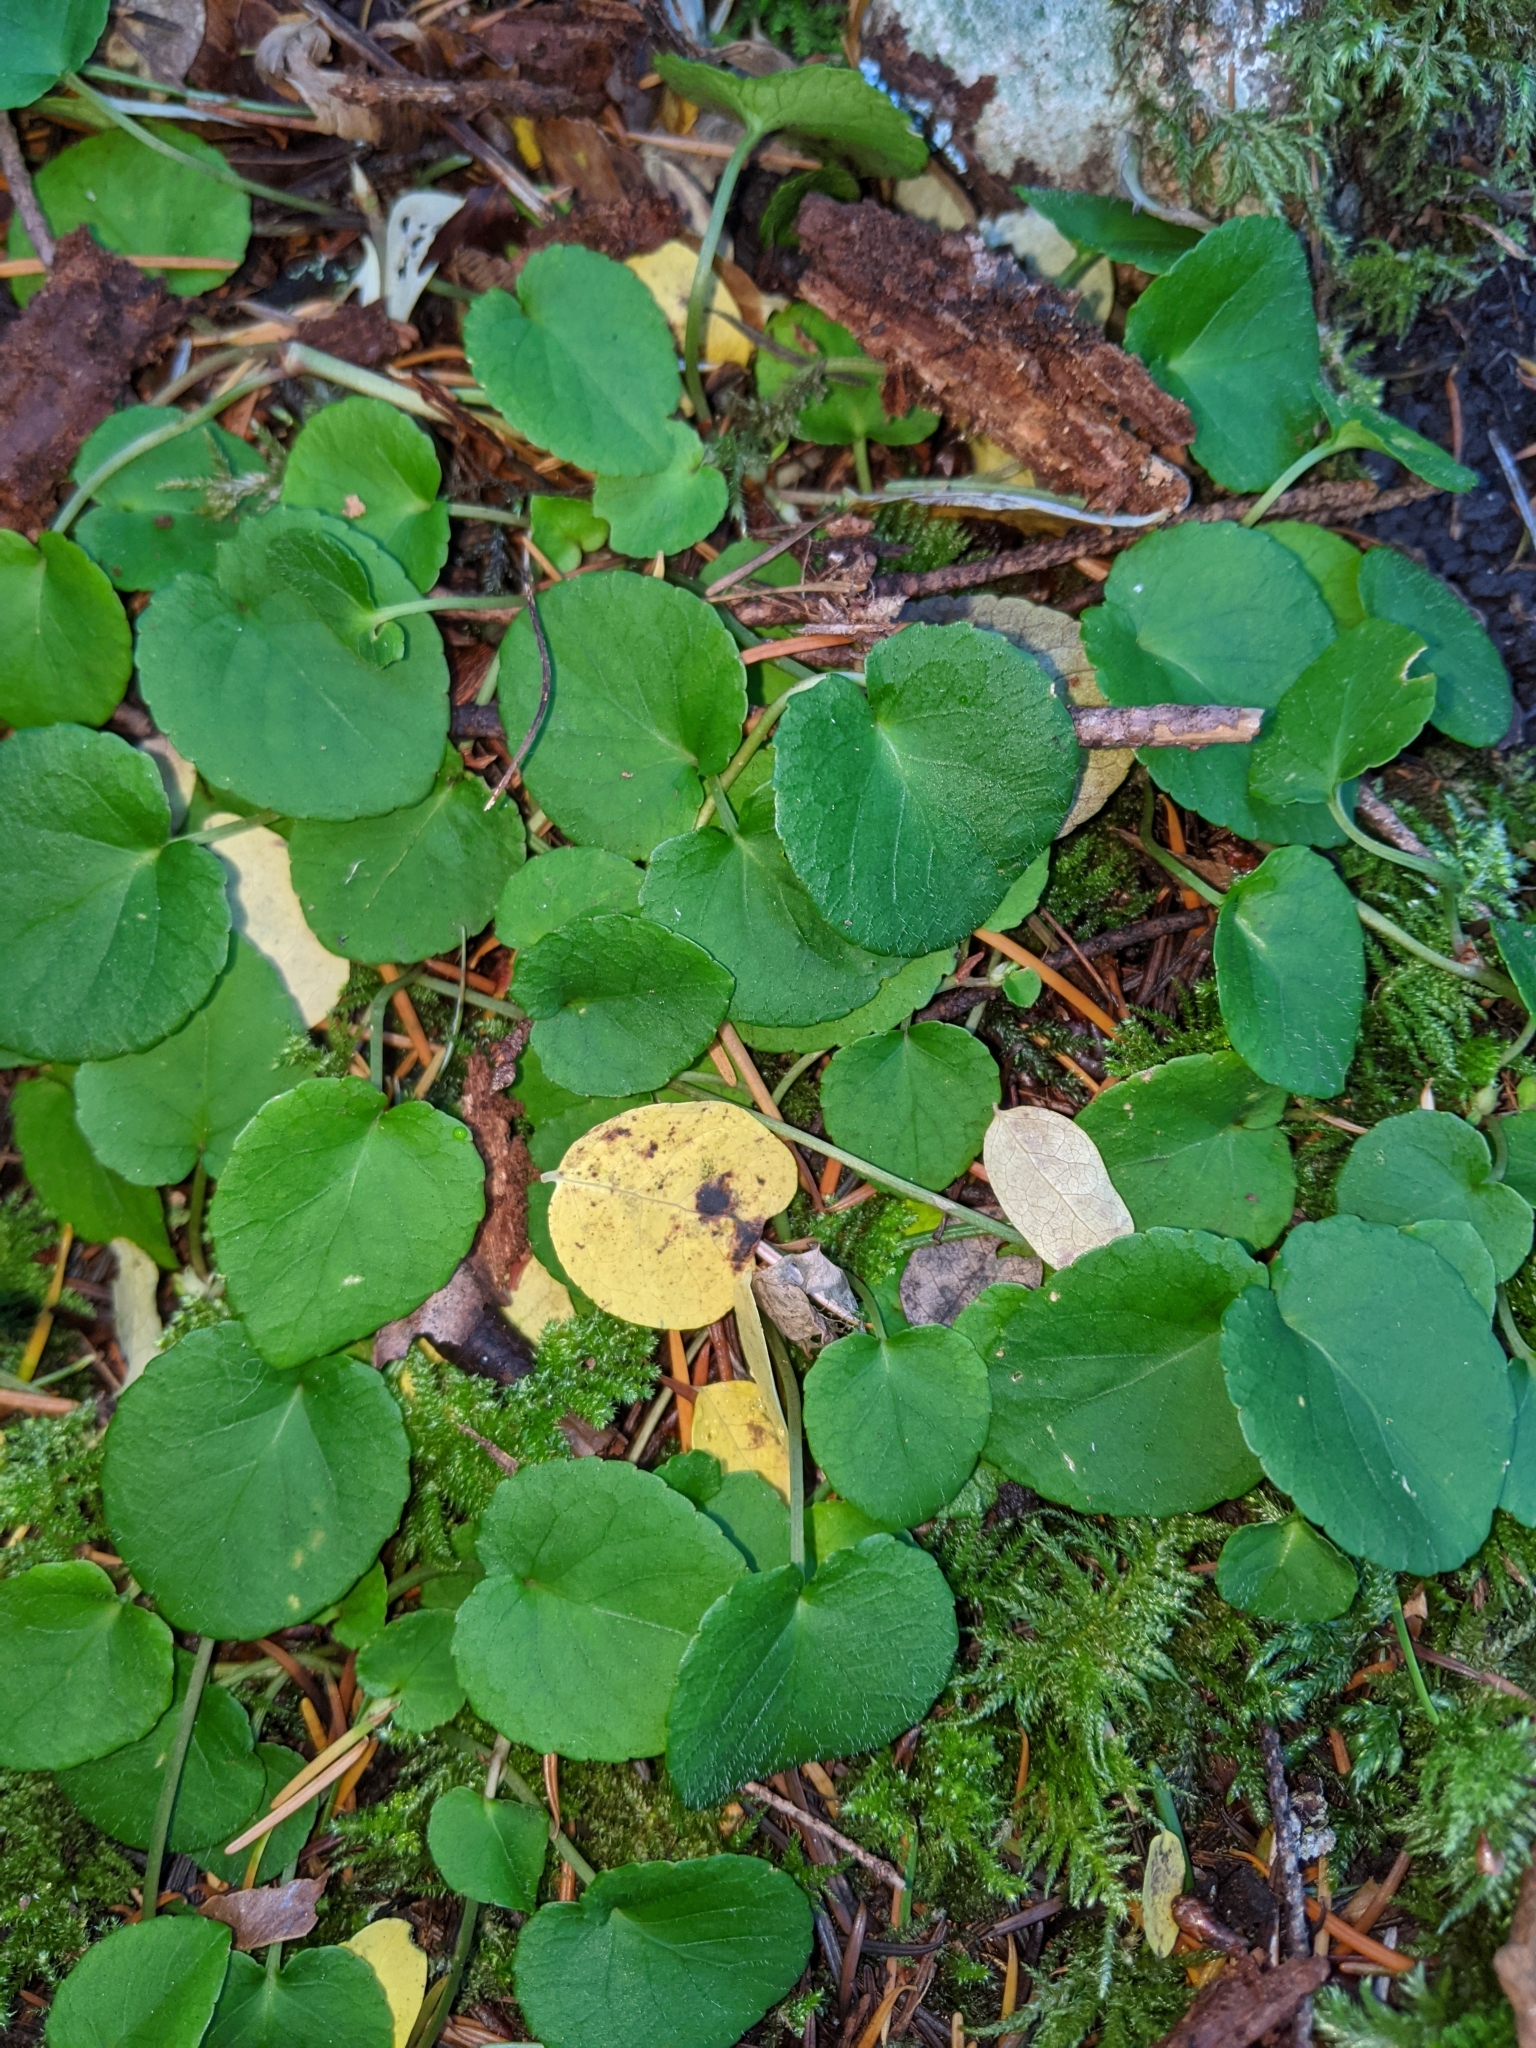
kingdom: Plantae
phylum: Tracheophyta
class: Magnoliopsida
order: Malpighiales
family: Violaceae
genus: Viola
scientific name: Viola sempervirens
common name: Evergreen violet
